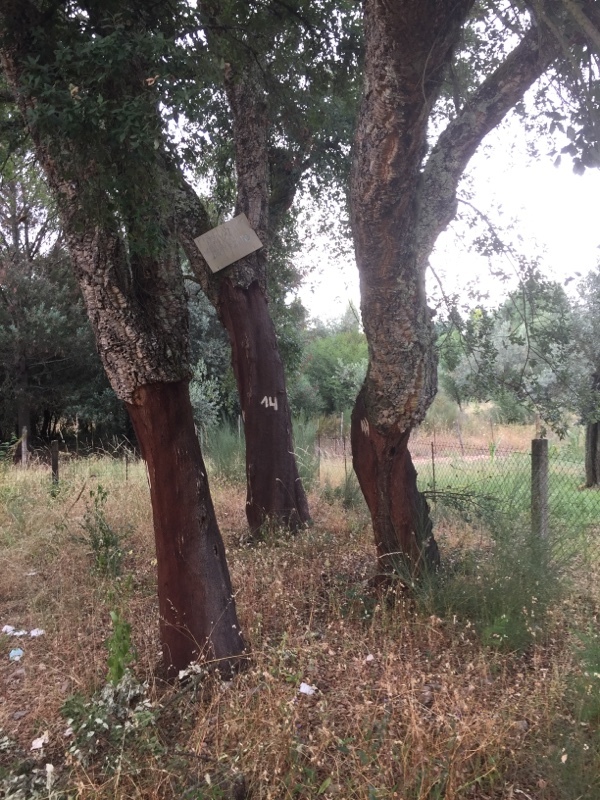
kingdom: Plantae
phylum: Tracheophyta
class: Magnoliopsida
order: Fagales
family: Fagaceae
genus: Quercus
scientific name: Quercus suber
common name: Cork oak
